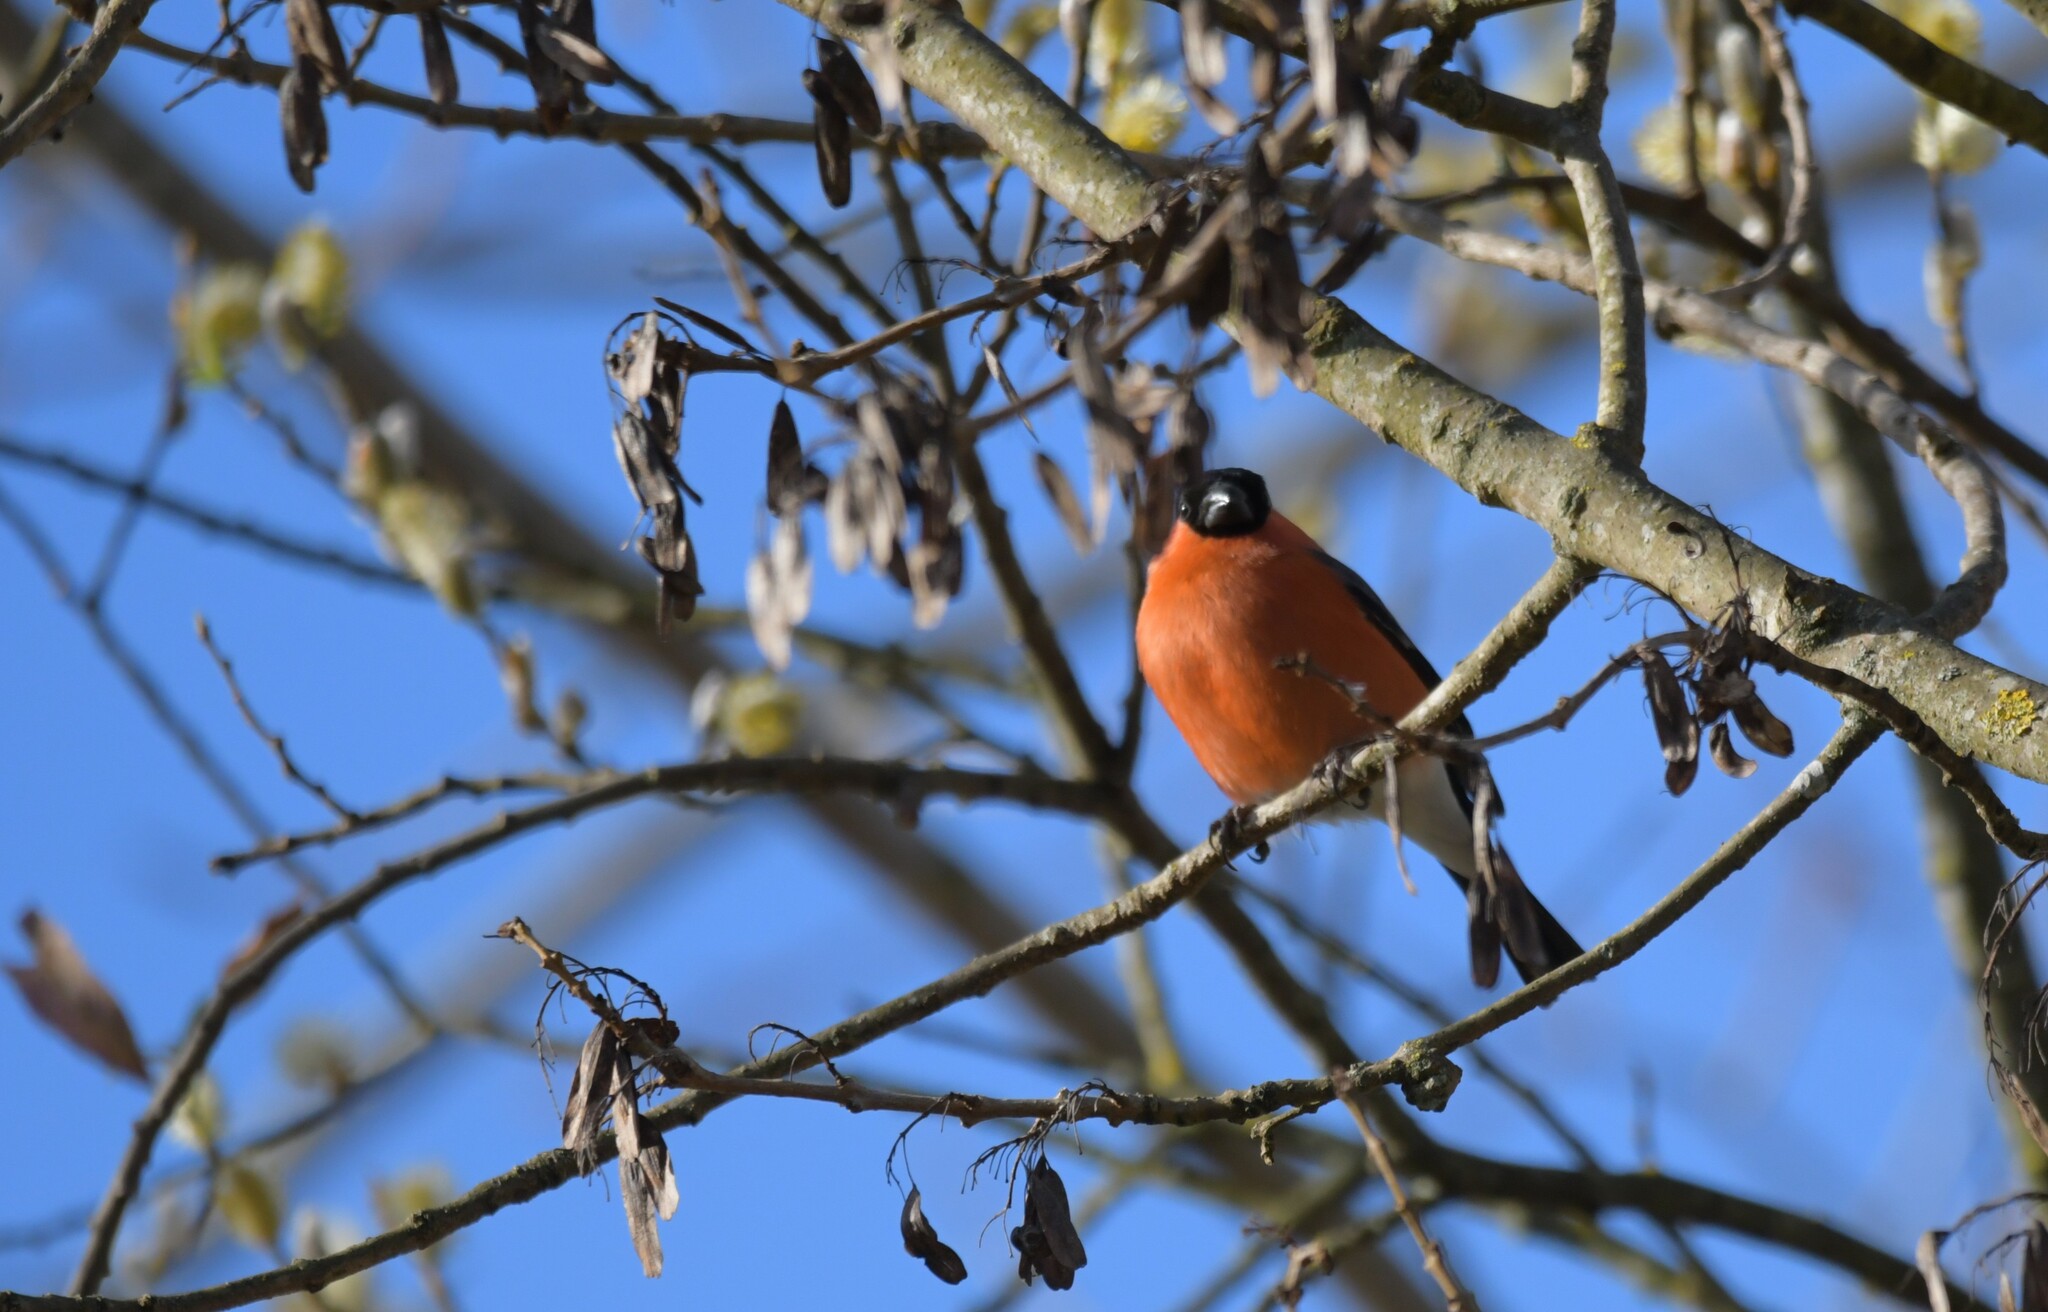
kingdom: Animalia
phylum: Chordata
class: Aves
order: Passeriformes
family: Fringillidae
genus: Pyrrhula
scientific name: Pyrrhula pyrrhula
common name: Eurasian bullfinch
